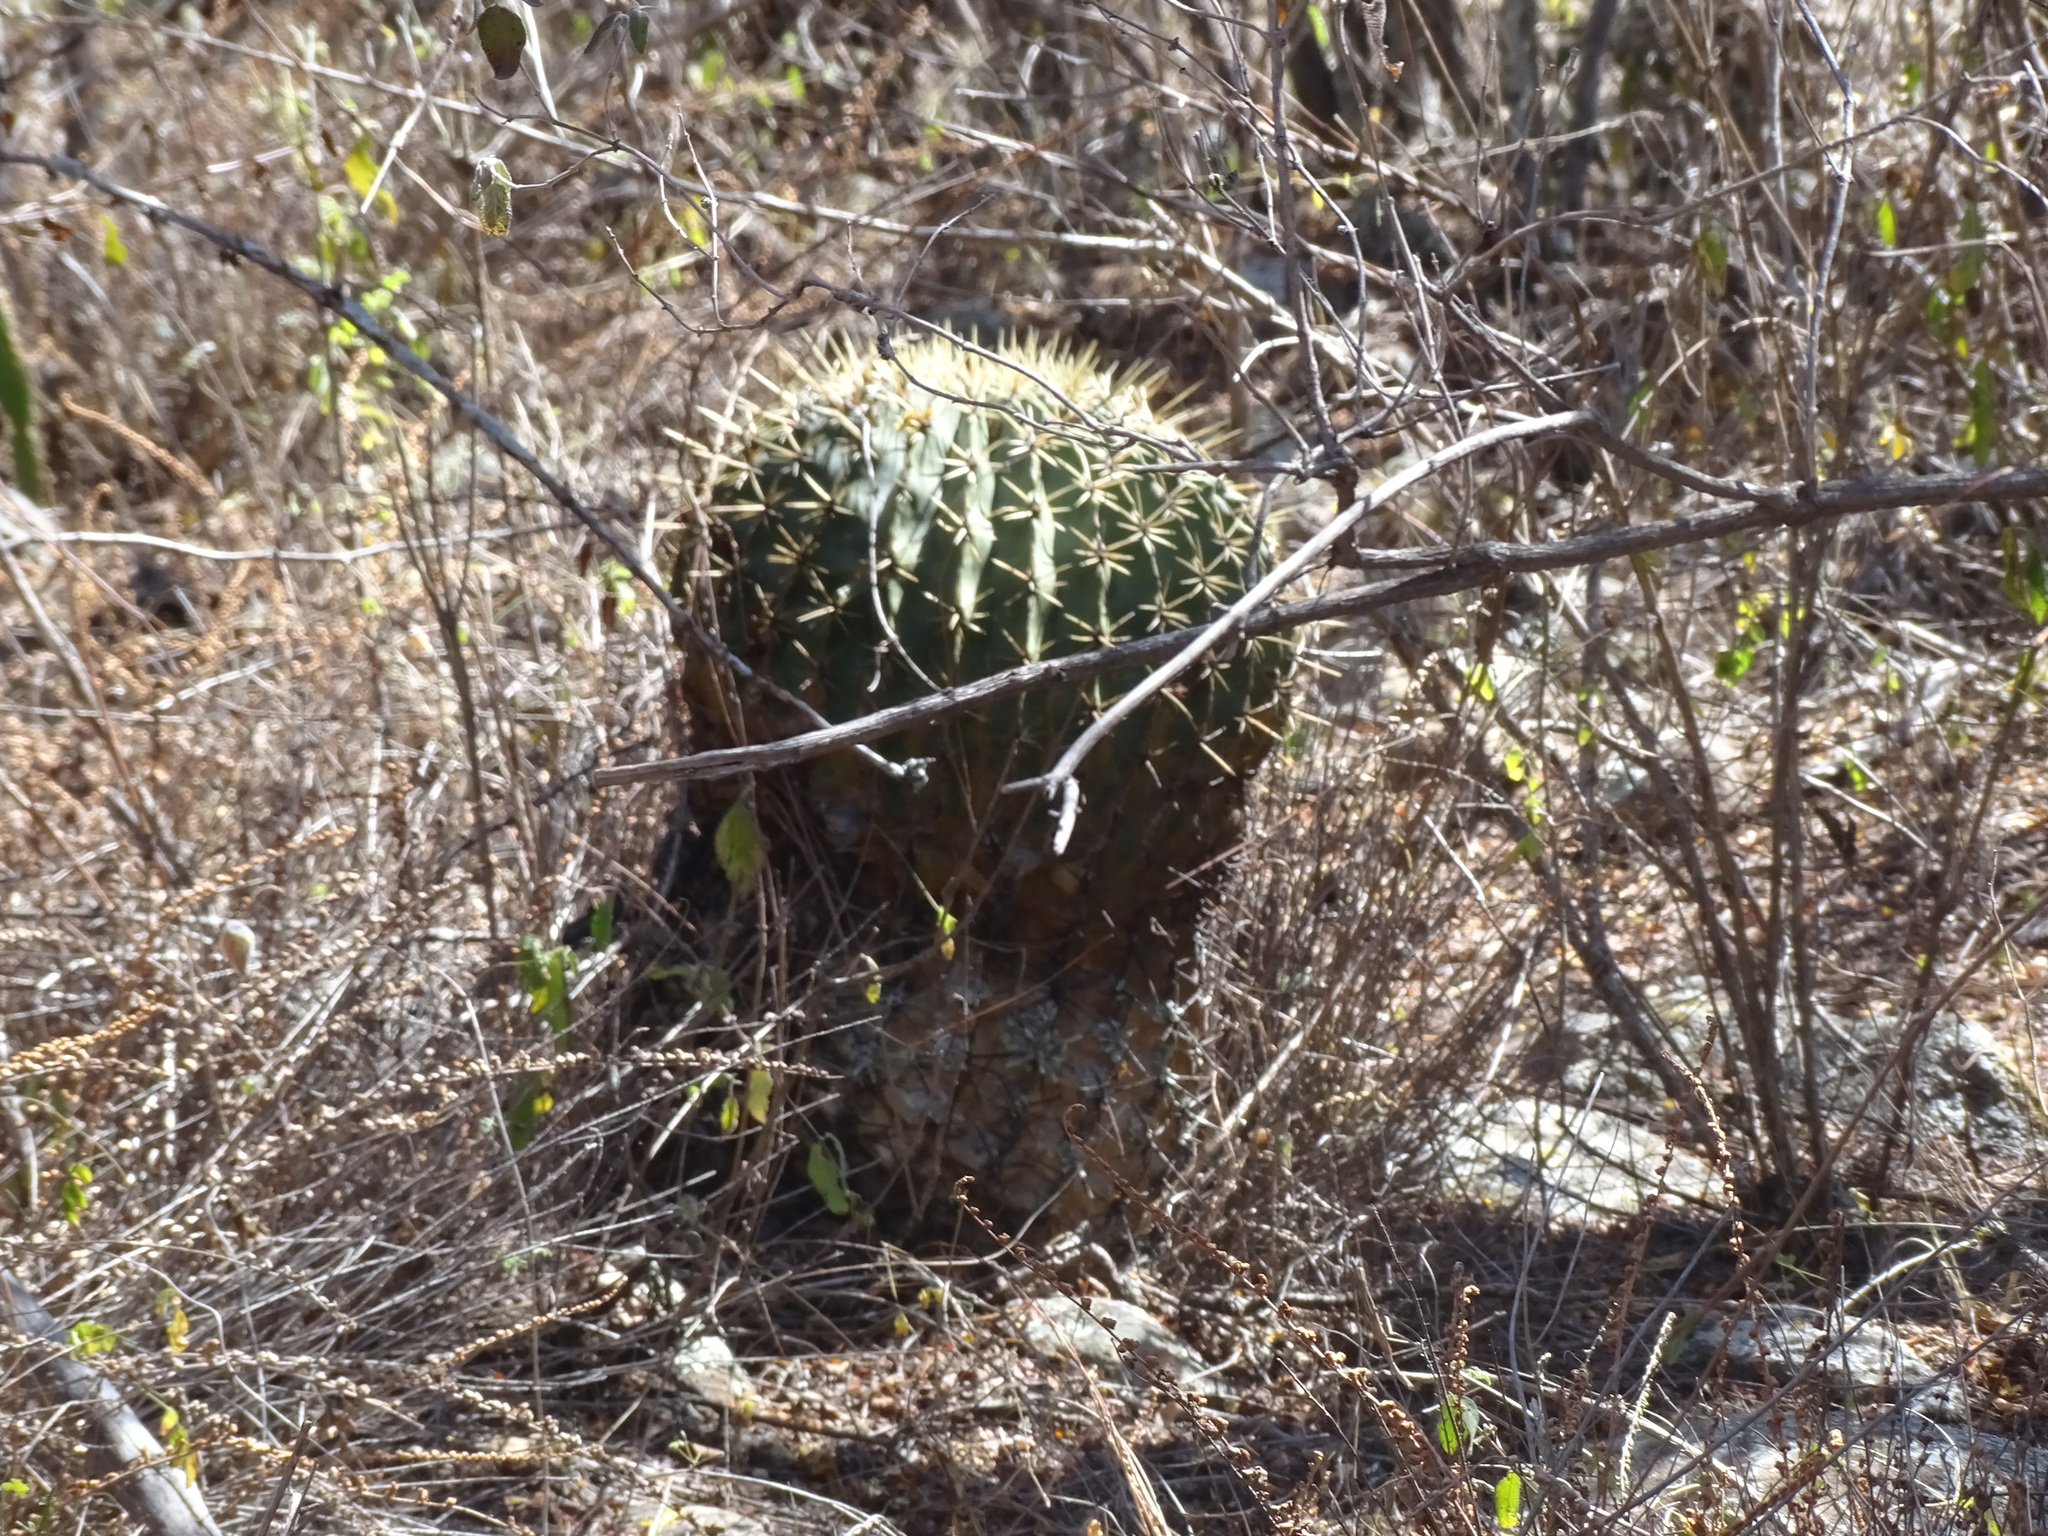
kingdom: Plantae
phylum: Tracheophyta
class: Magnoliopsida
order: Caryophyllales
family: Cactaceae
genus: Bisnaga
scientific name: Bisnaga histrix
